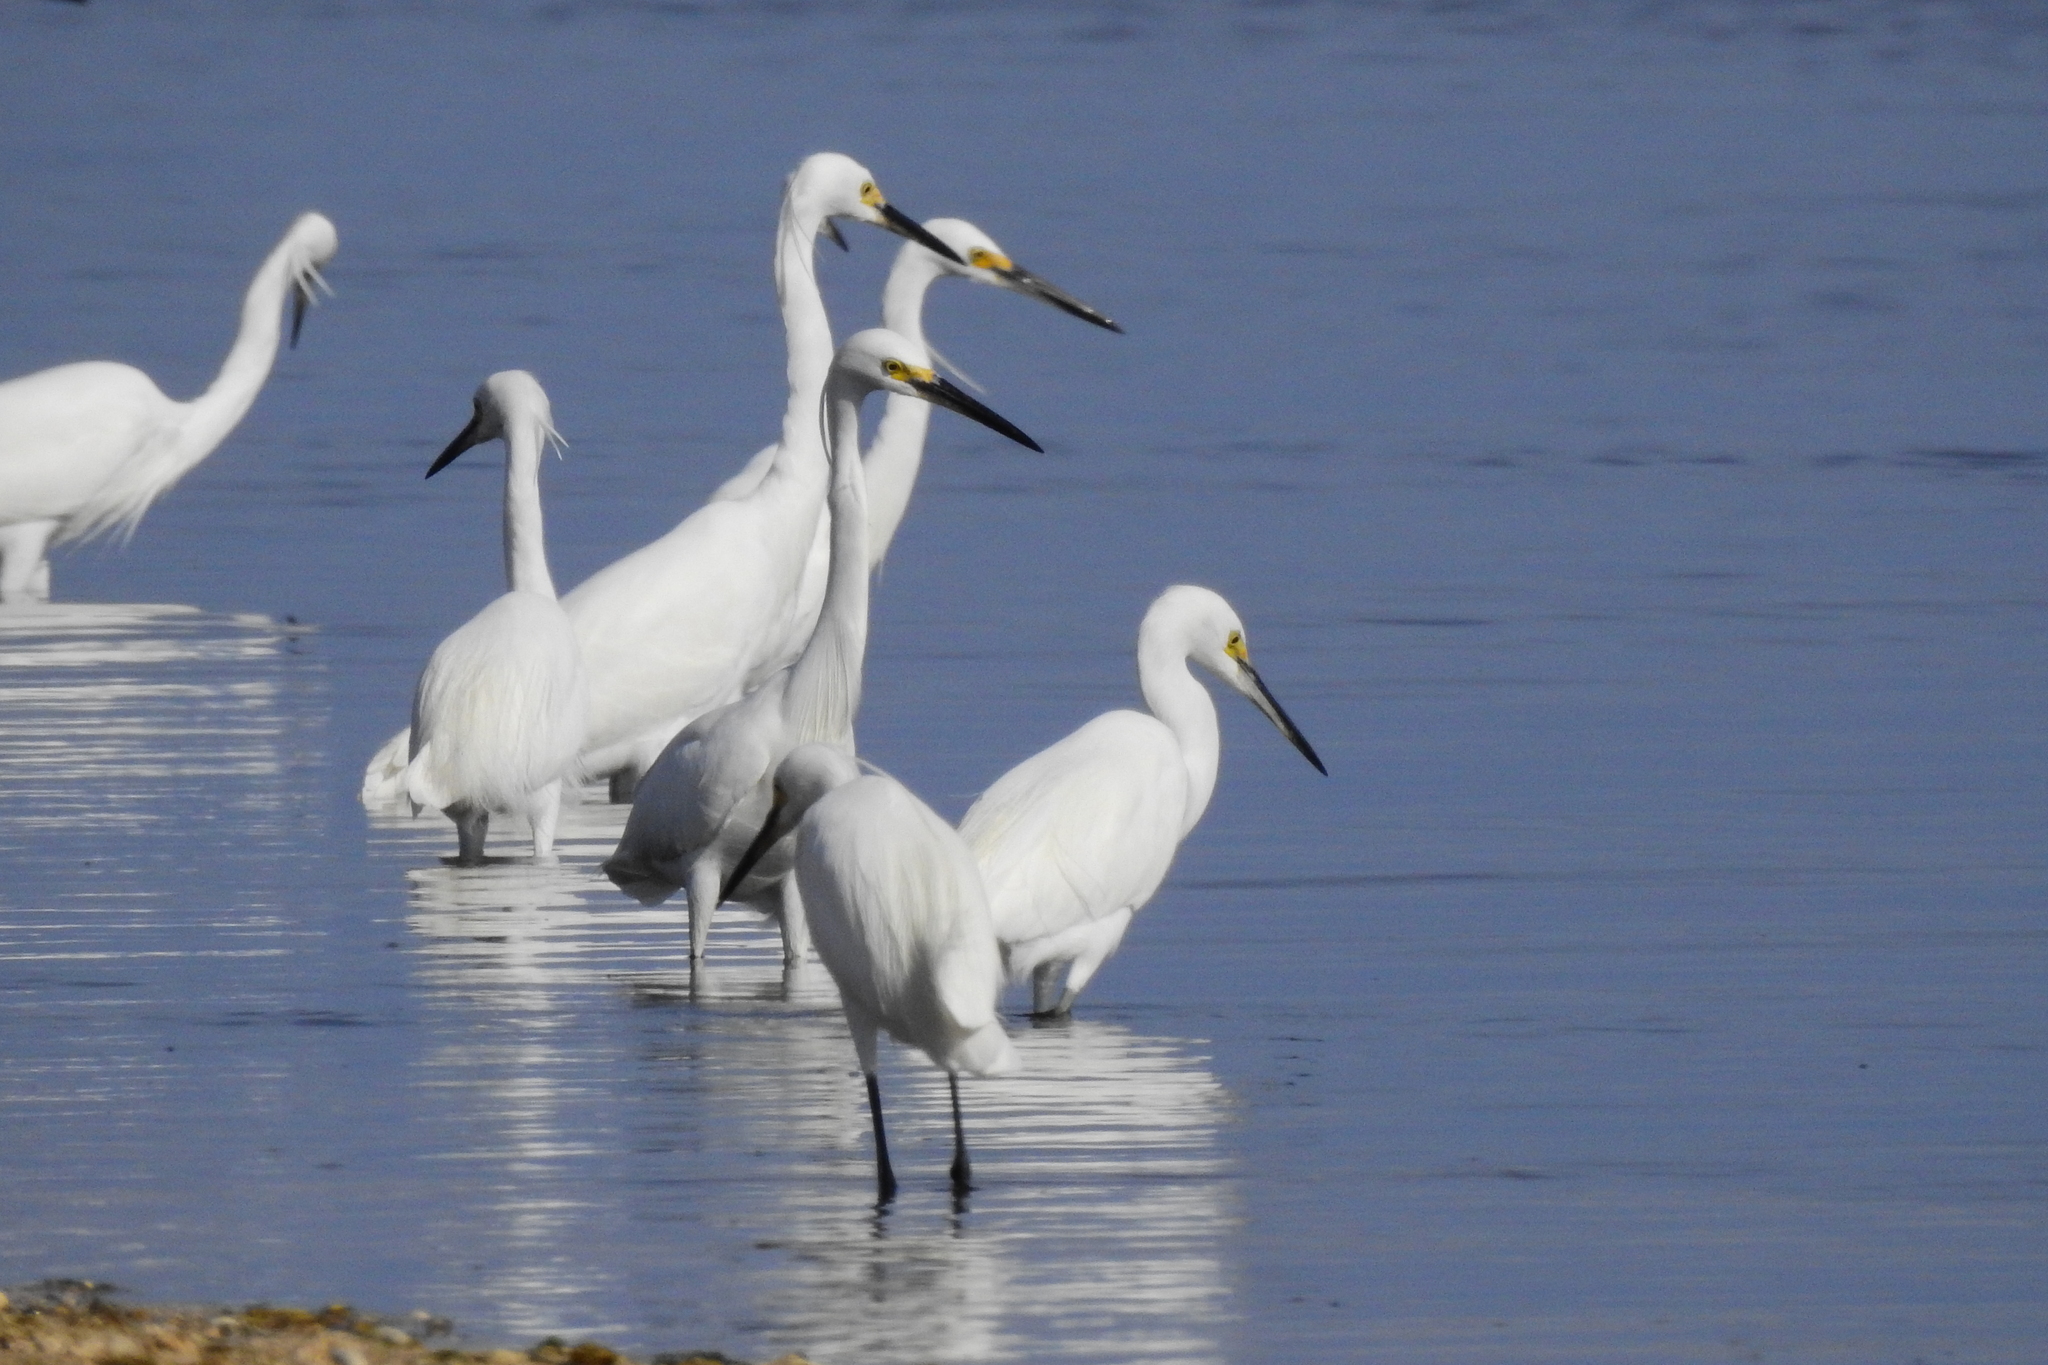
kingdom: Animalia
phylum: Chordata
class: Aves
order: Pelecaniformes
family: Ardeidae
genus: Egretta
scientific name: Egretta garzetta
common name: Little egret
